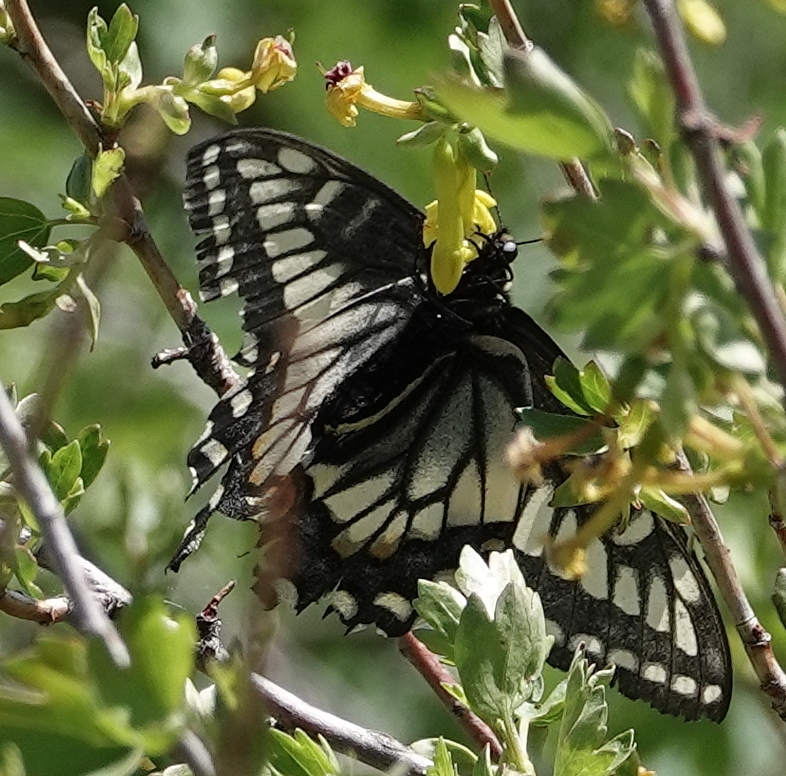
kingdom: Animalia
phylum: Arthropoda
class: Insecta
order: Lepidoptera
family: Papilionidae
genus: Papilio
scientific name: Papilio zelicaon
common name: Anise swallowtail
